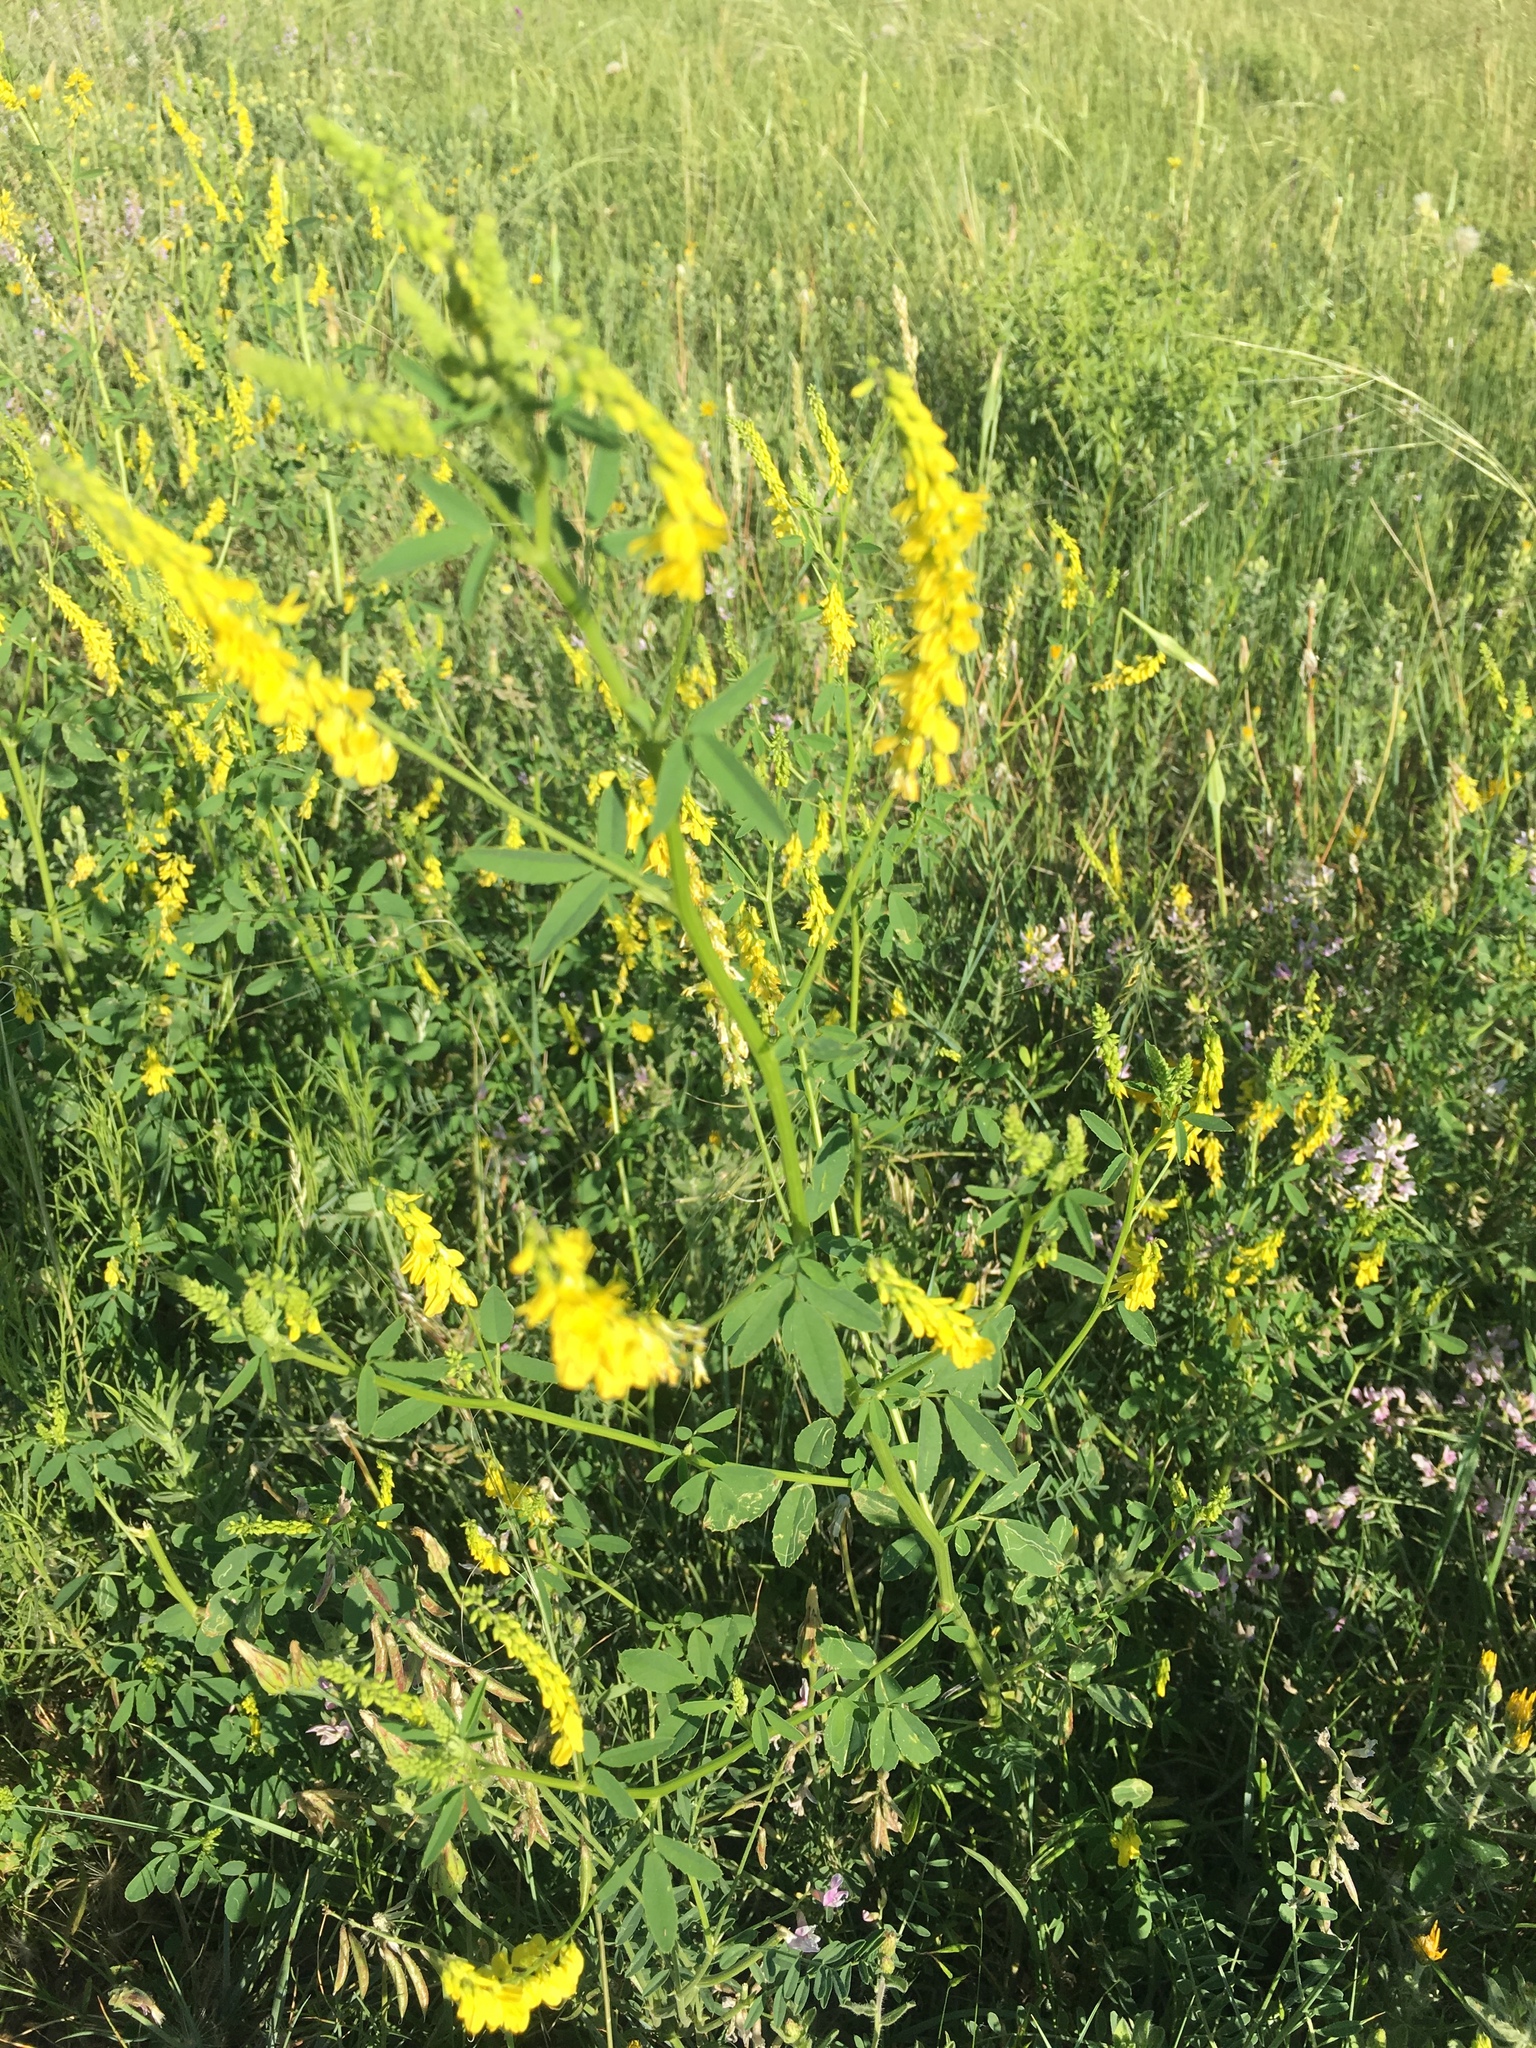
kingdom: Plantae
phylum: Tracheophyta
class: Magnoliopsida
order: Fabales
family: Fabaceae
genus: Melilotus
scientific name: Melilotus officinalis
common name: Sweetclover
